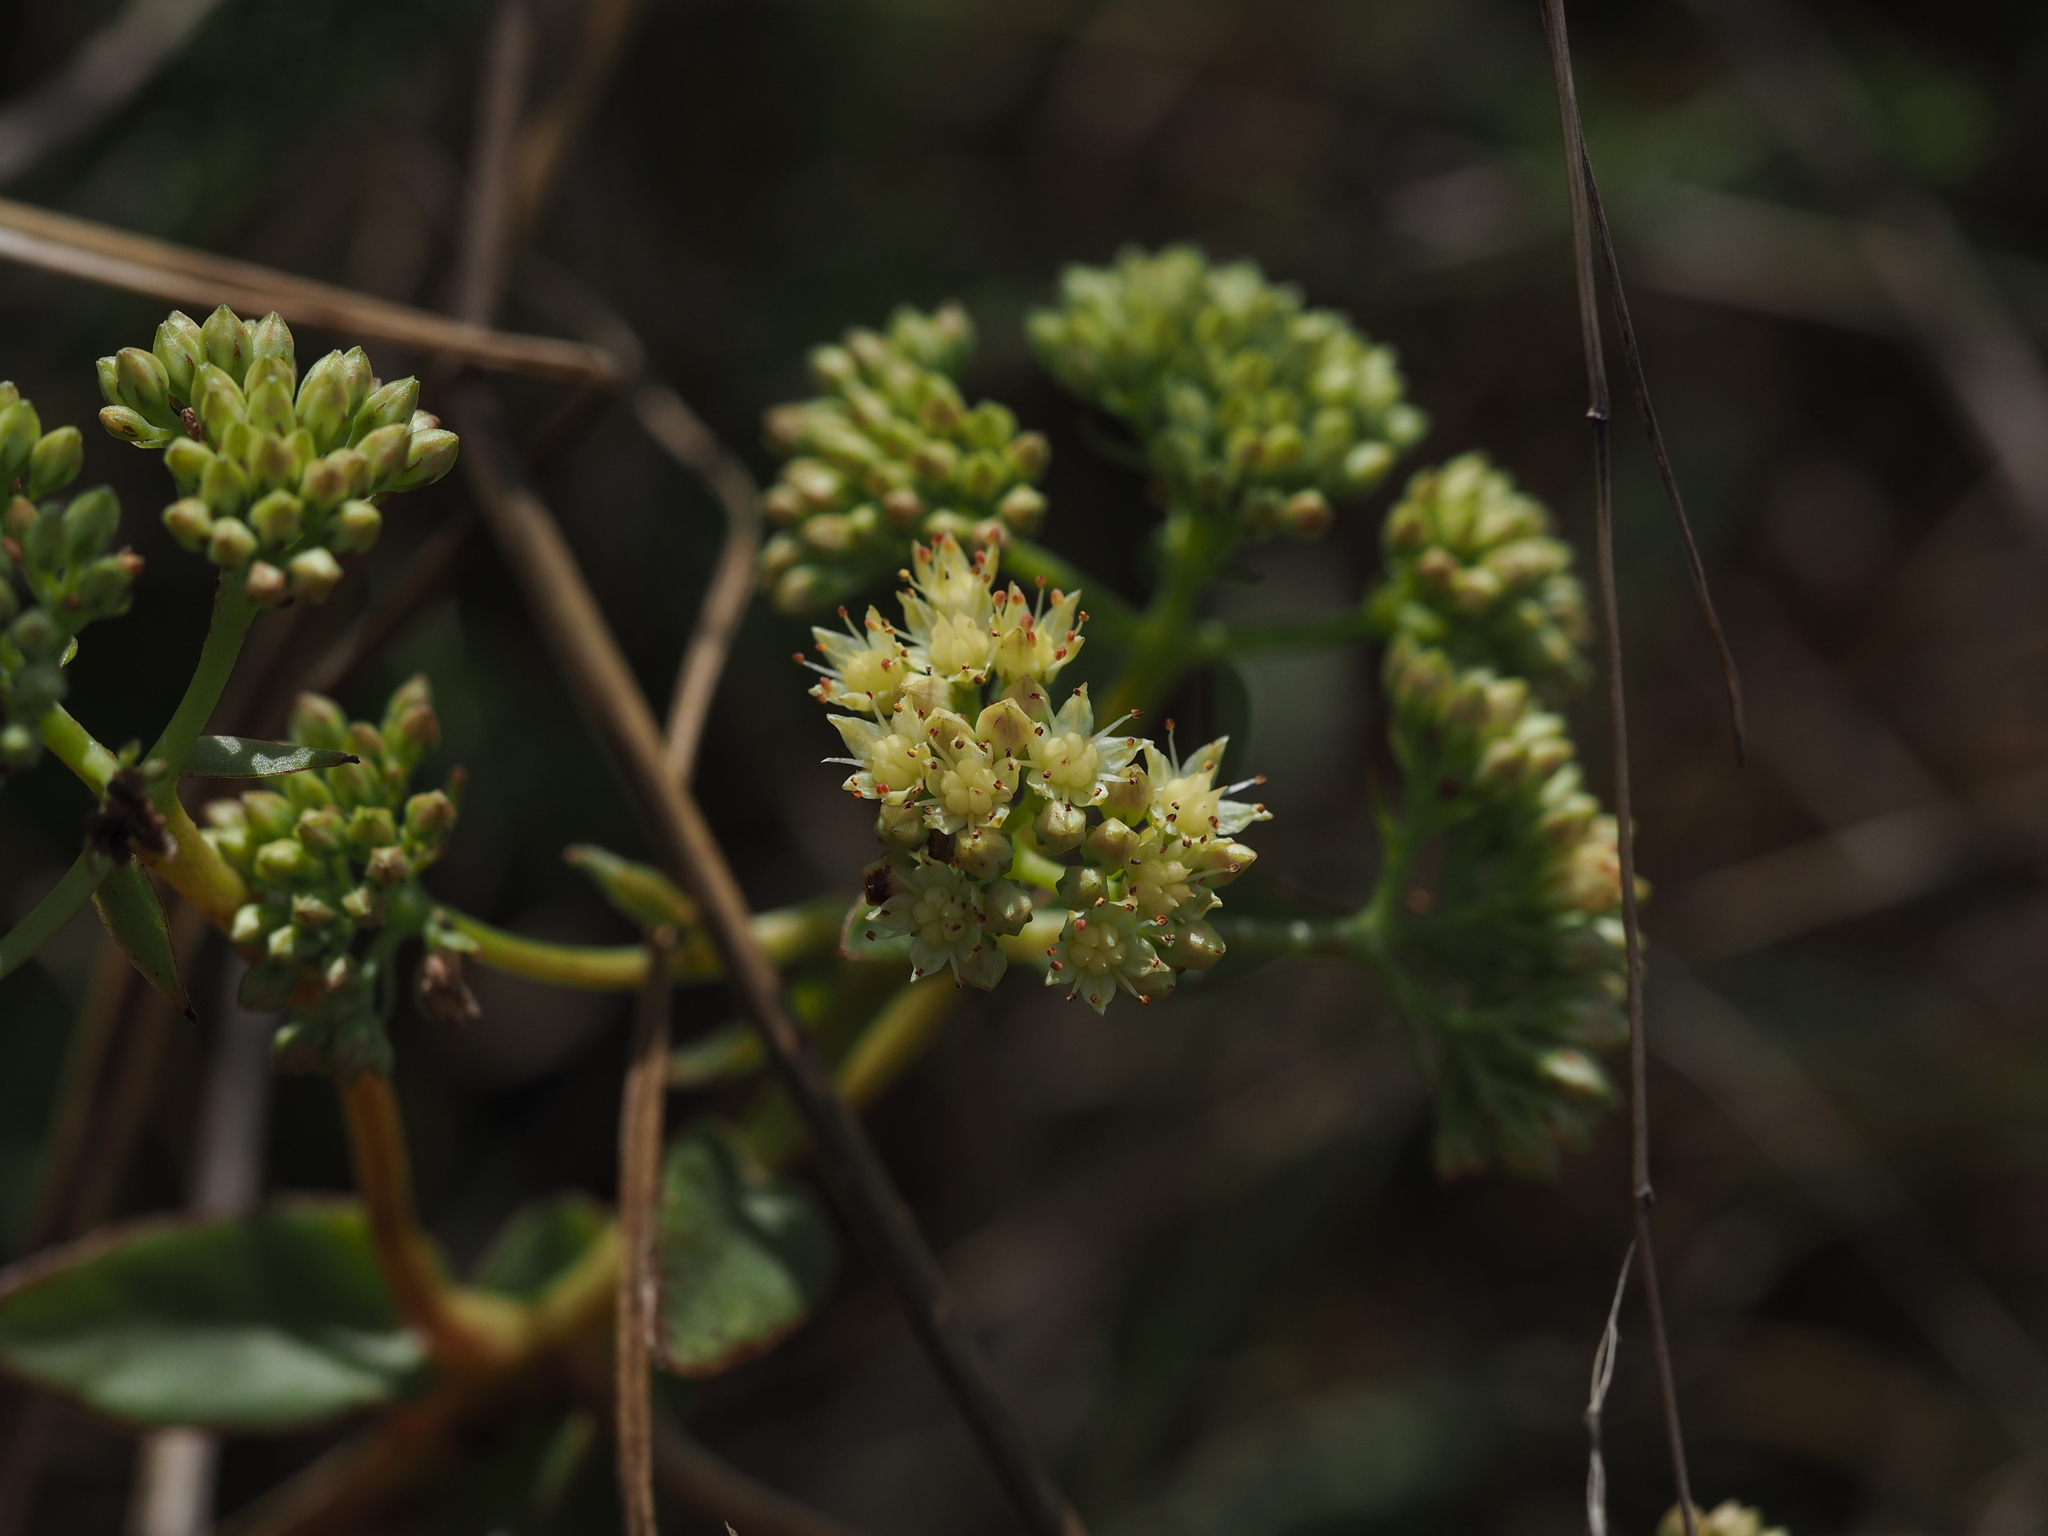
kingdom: Plantae
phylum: Tracheophyta
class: Magnoliopsida
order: Saxifragales
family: Crassulaceae
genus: Hylotelephium
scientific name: Hylotelephium maximum
